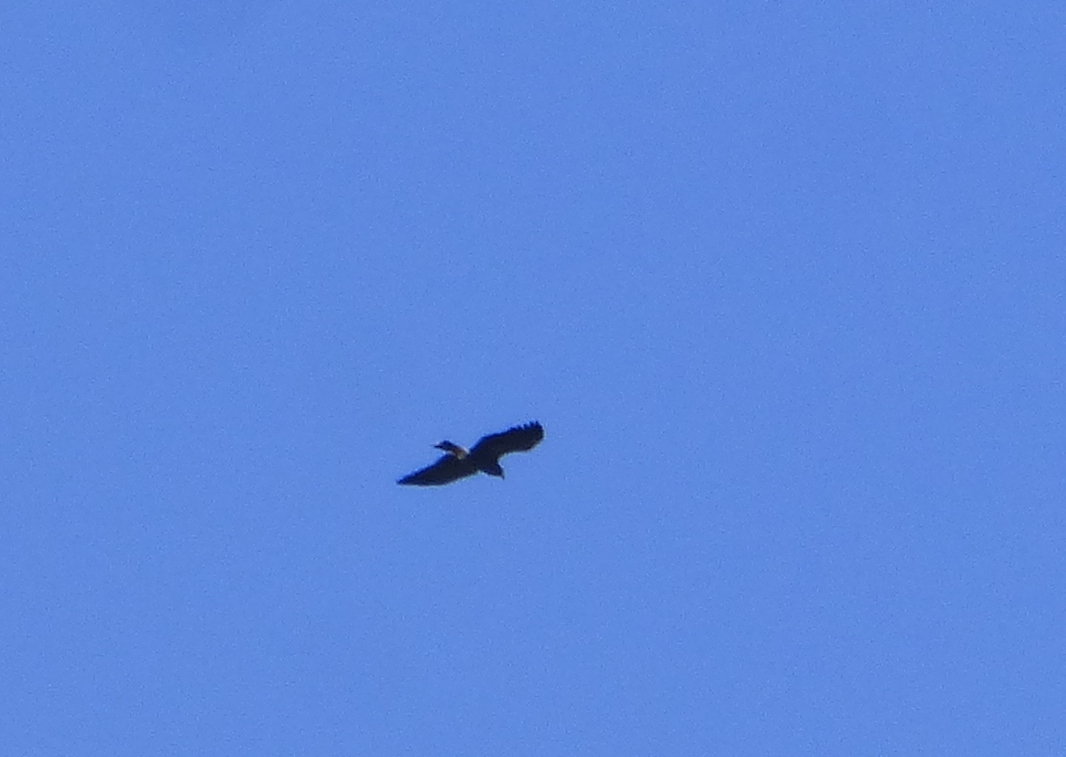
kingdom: Animalia
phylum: Chordata
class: Aves
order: Accipitriformes
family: Accipitridae
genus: Rostrhamus
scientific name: Rostrhamus sociabilis
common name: Snail kite
